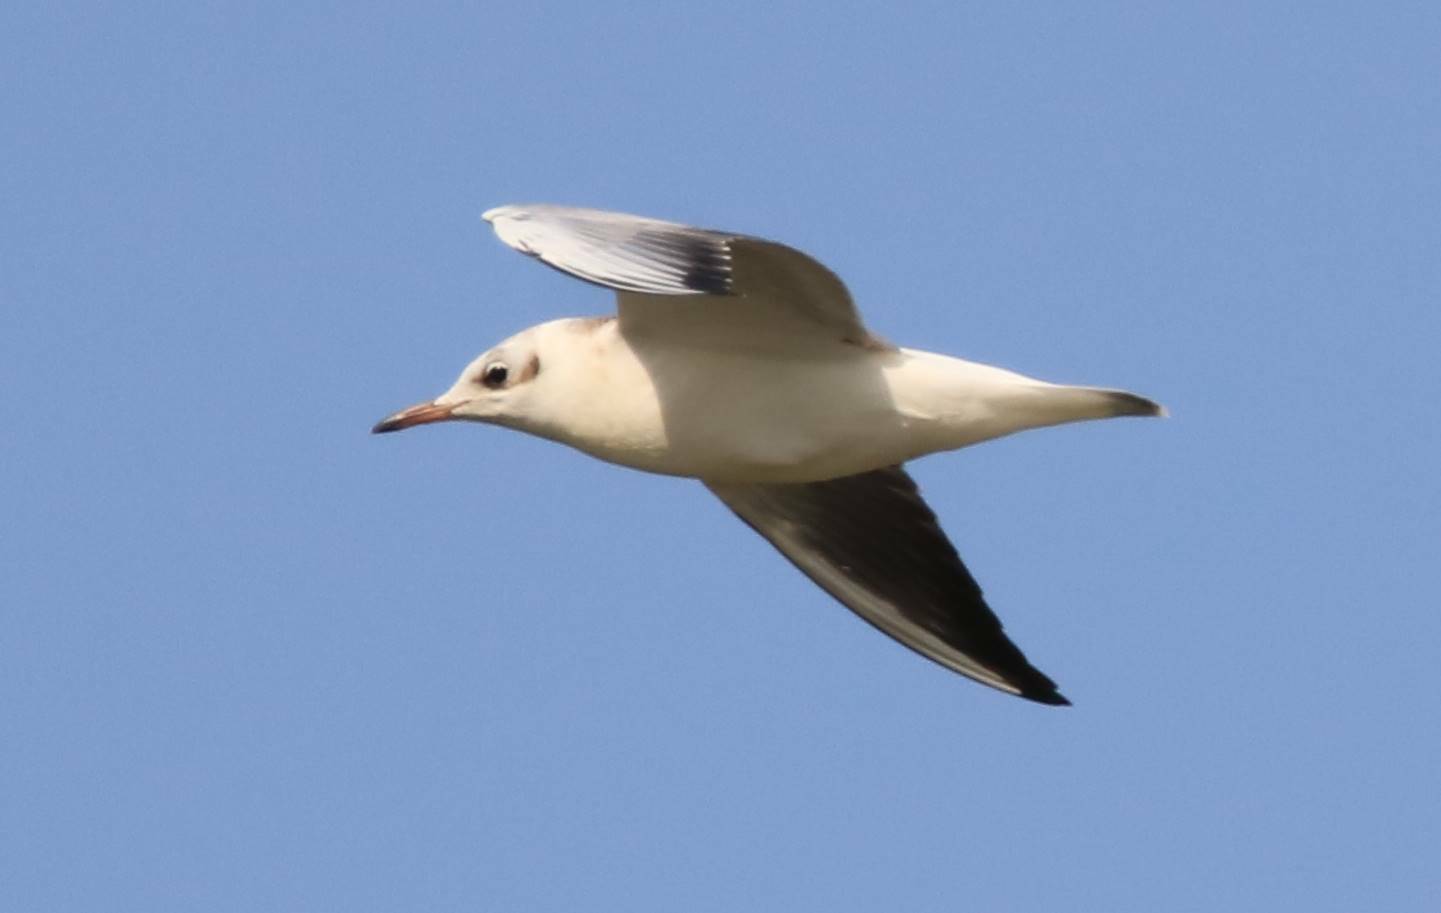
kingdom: Animalia
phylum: Chordata
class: Aves
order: Charadriiformes
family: Laridae
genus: Chroicocephalus
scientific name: Chroicocephalus ridibundus
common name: Black-headed gull
